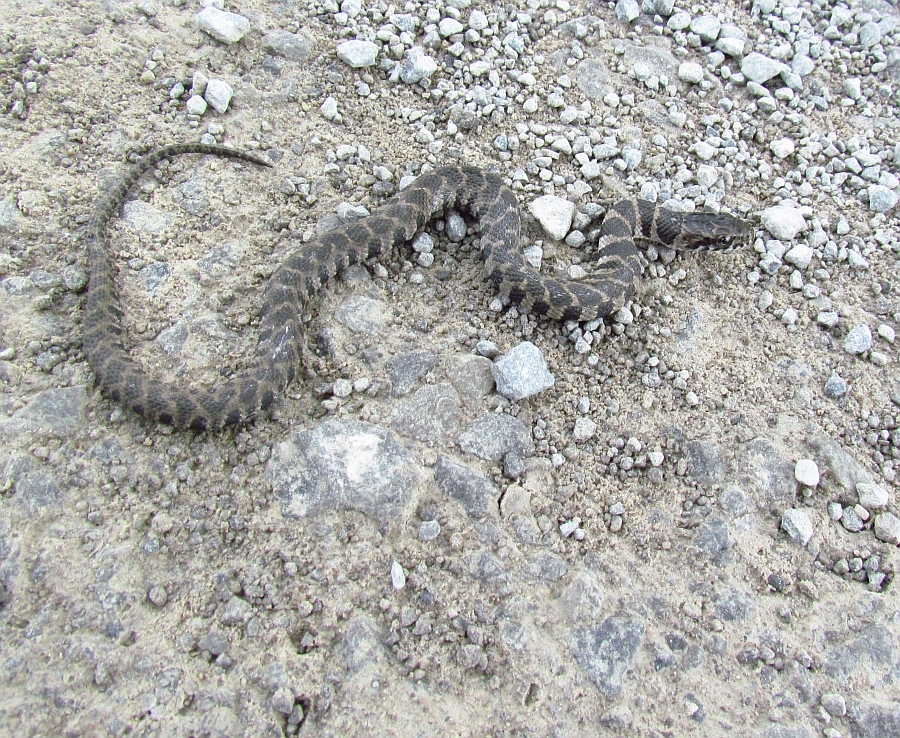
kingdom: Animalia
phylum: Chordata
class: Squamata
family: Colubridae
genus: Nerodia
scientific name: Nerodia sipedon
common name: Northern water snake
